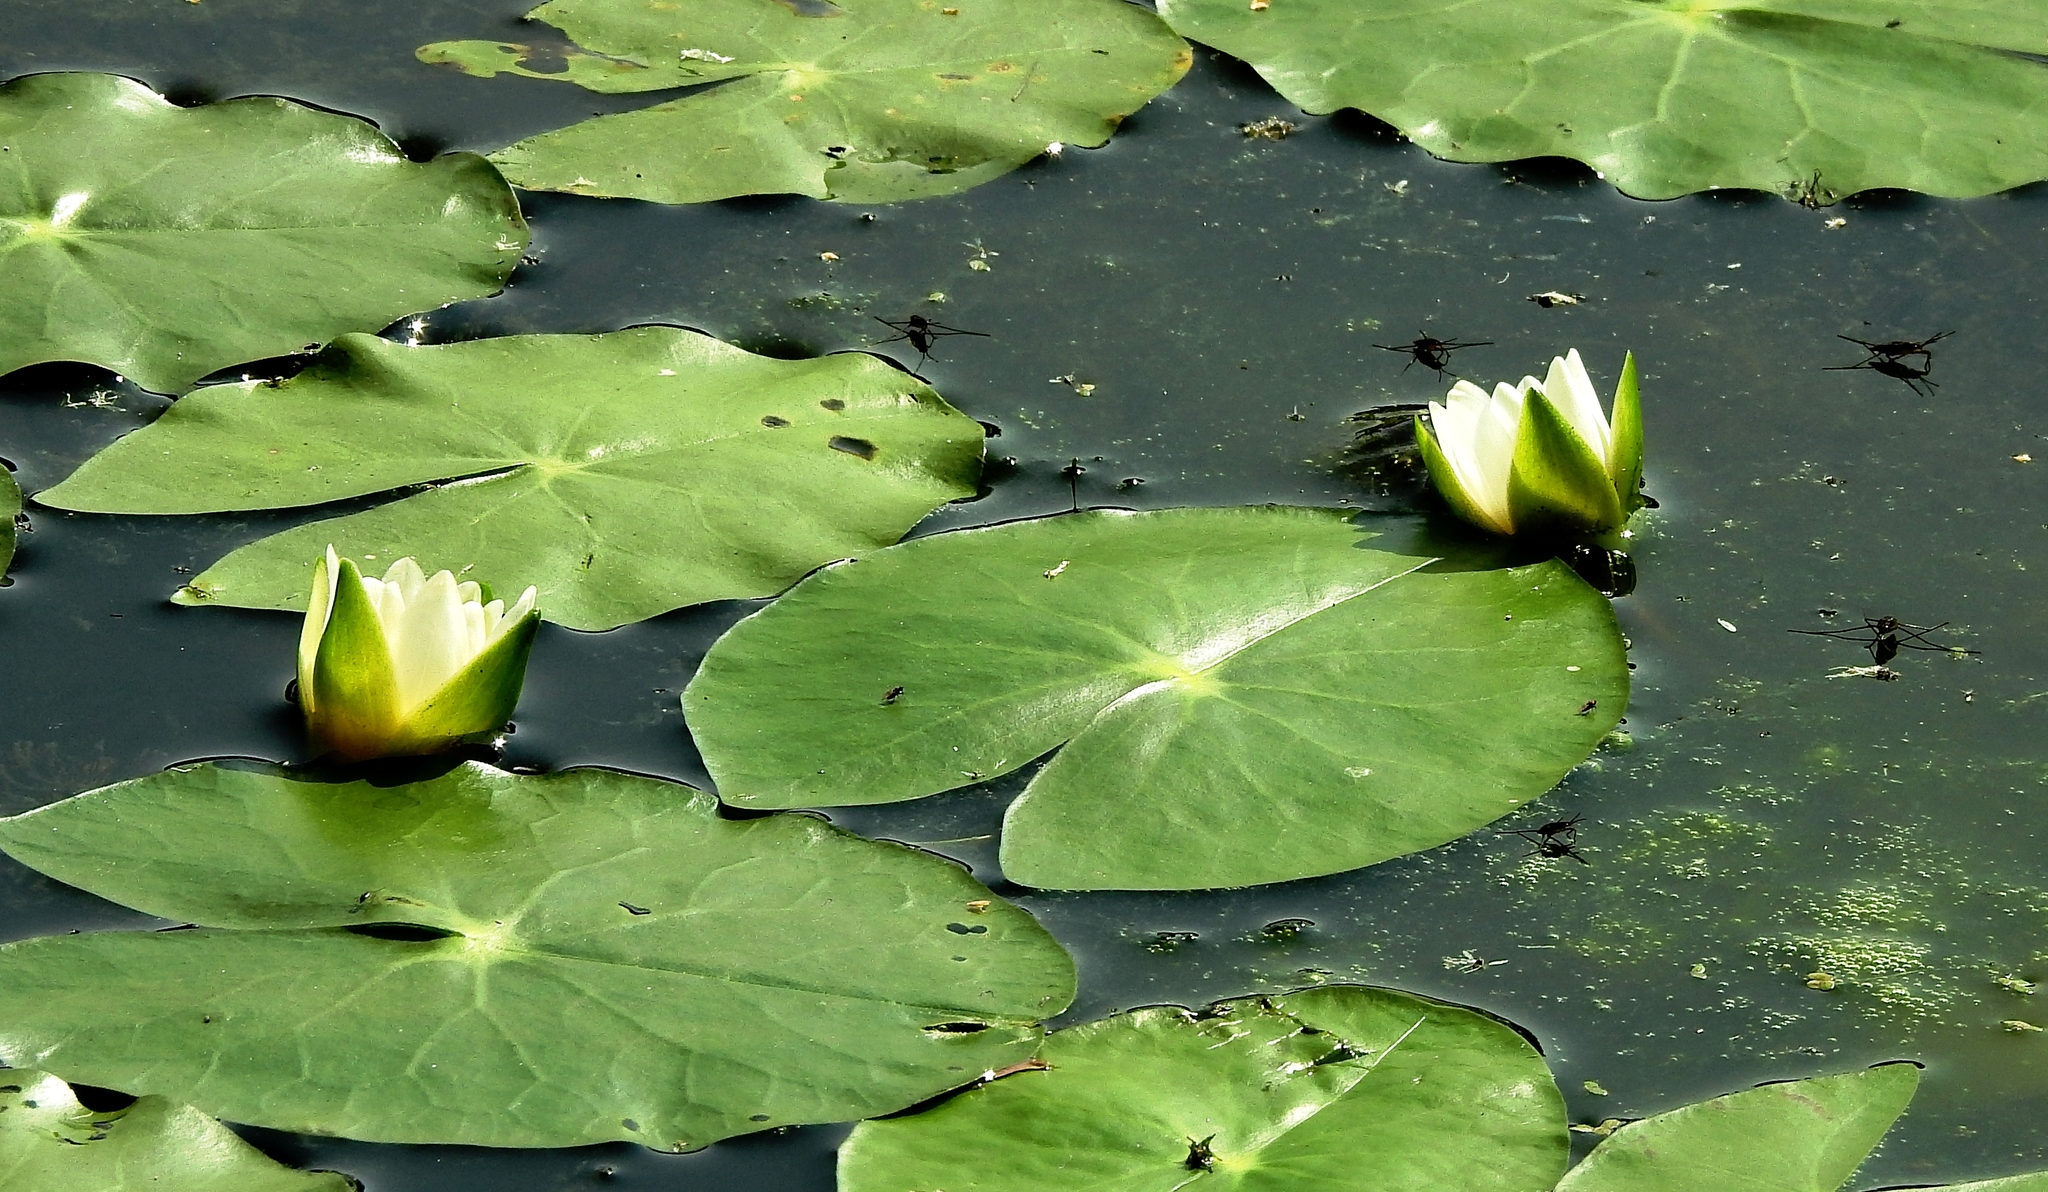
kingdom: Plantae
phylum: Tracheophyta
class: Magnoliopsida
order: Nymphaeales
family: Nymphaeaceae
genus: Nymphaea
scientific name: Nymphaea tetragona
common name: Pygmy water-lily
